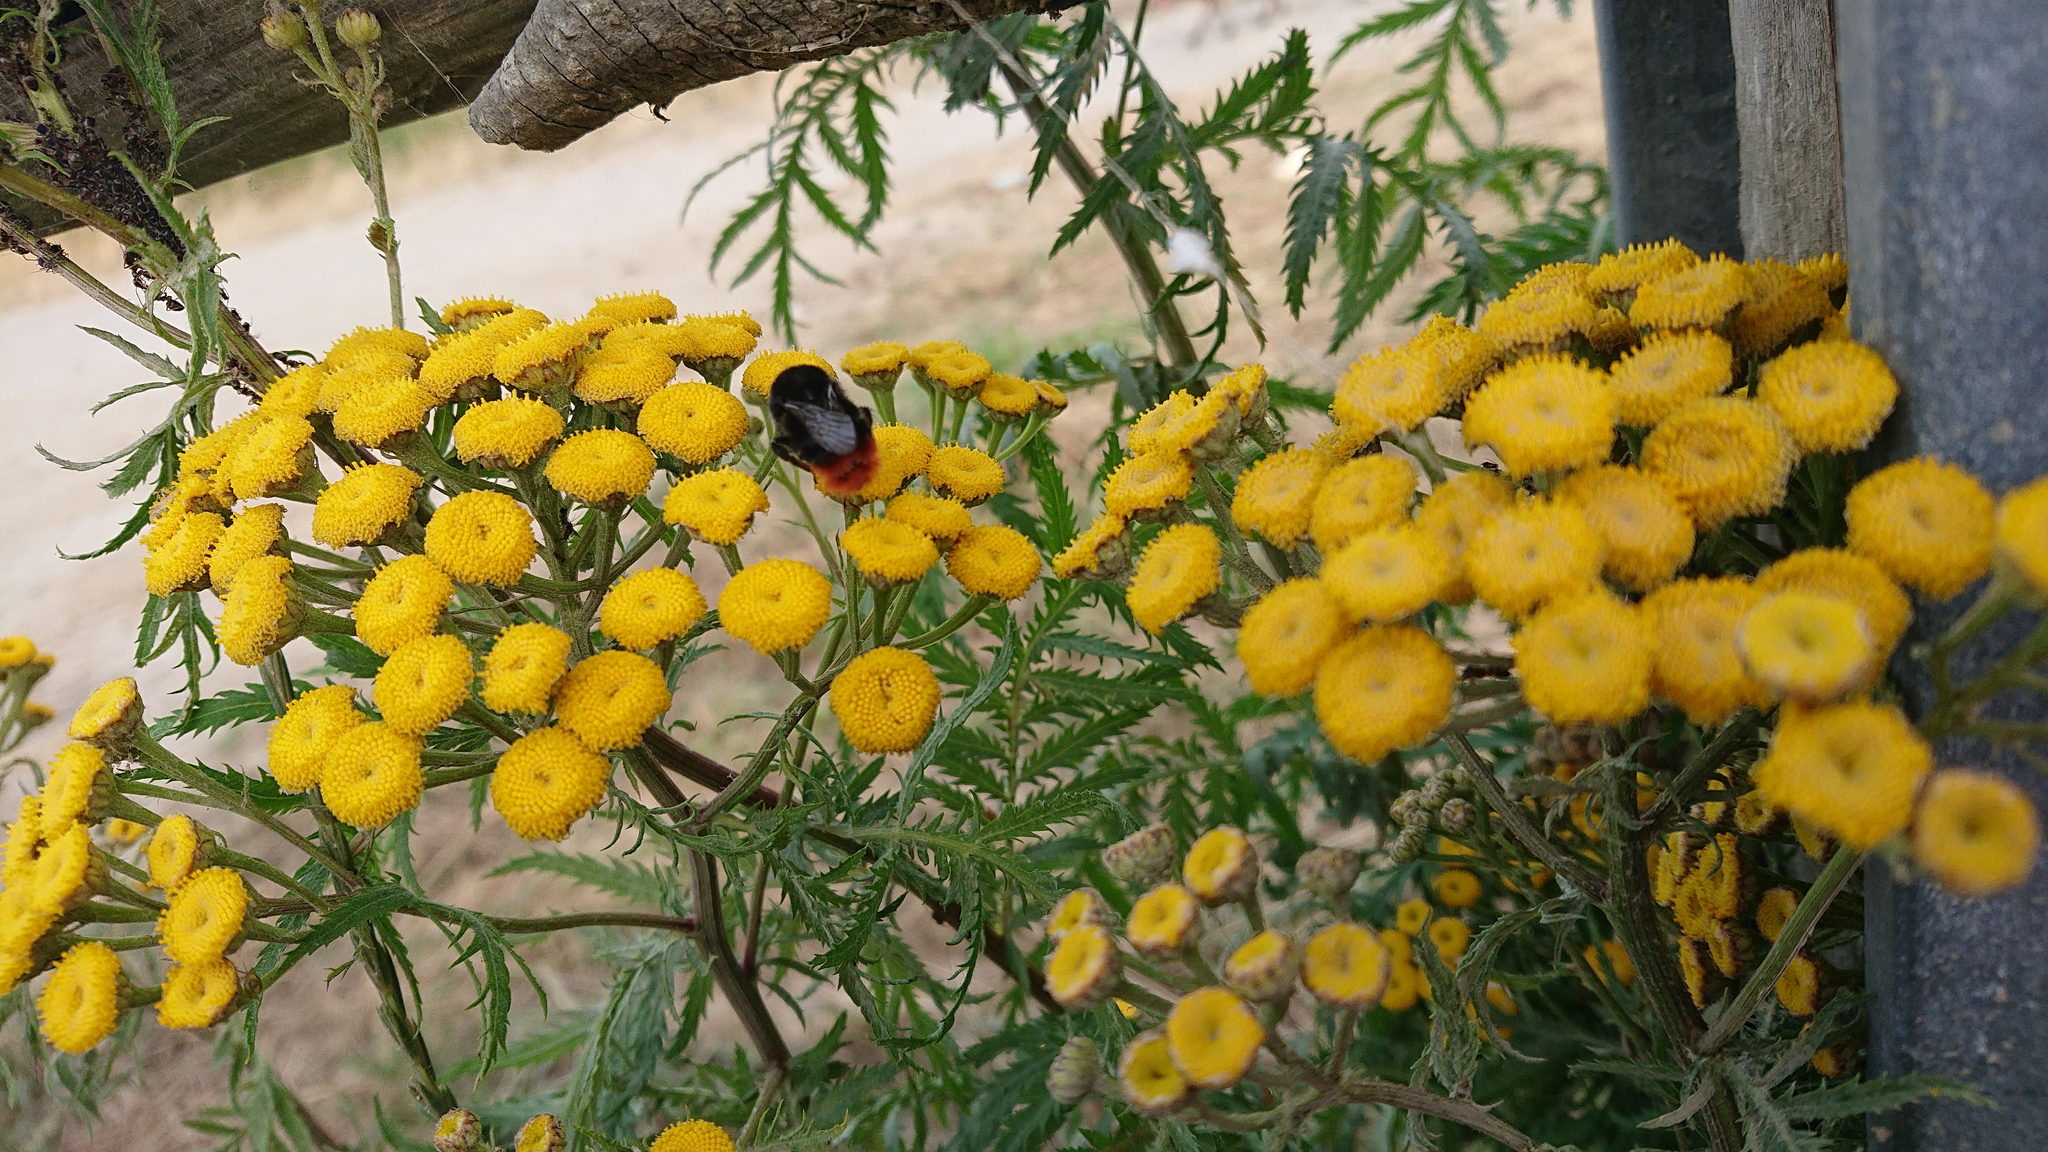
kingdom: Plantae
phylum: Tracheophyta
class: Magnoliopsida
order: Asterales
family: Asteraceae
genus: Tanacetum
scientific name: Tanacetum vulgare
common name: Common tansy
